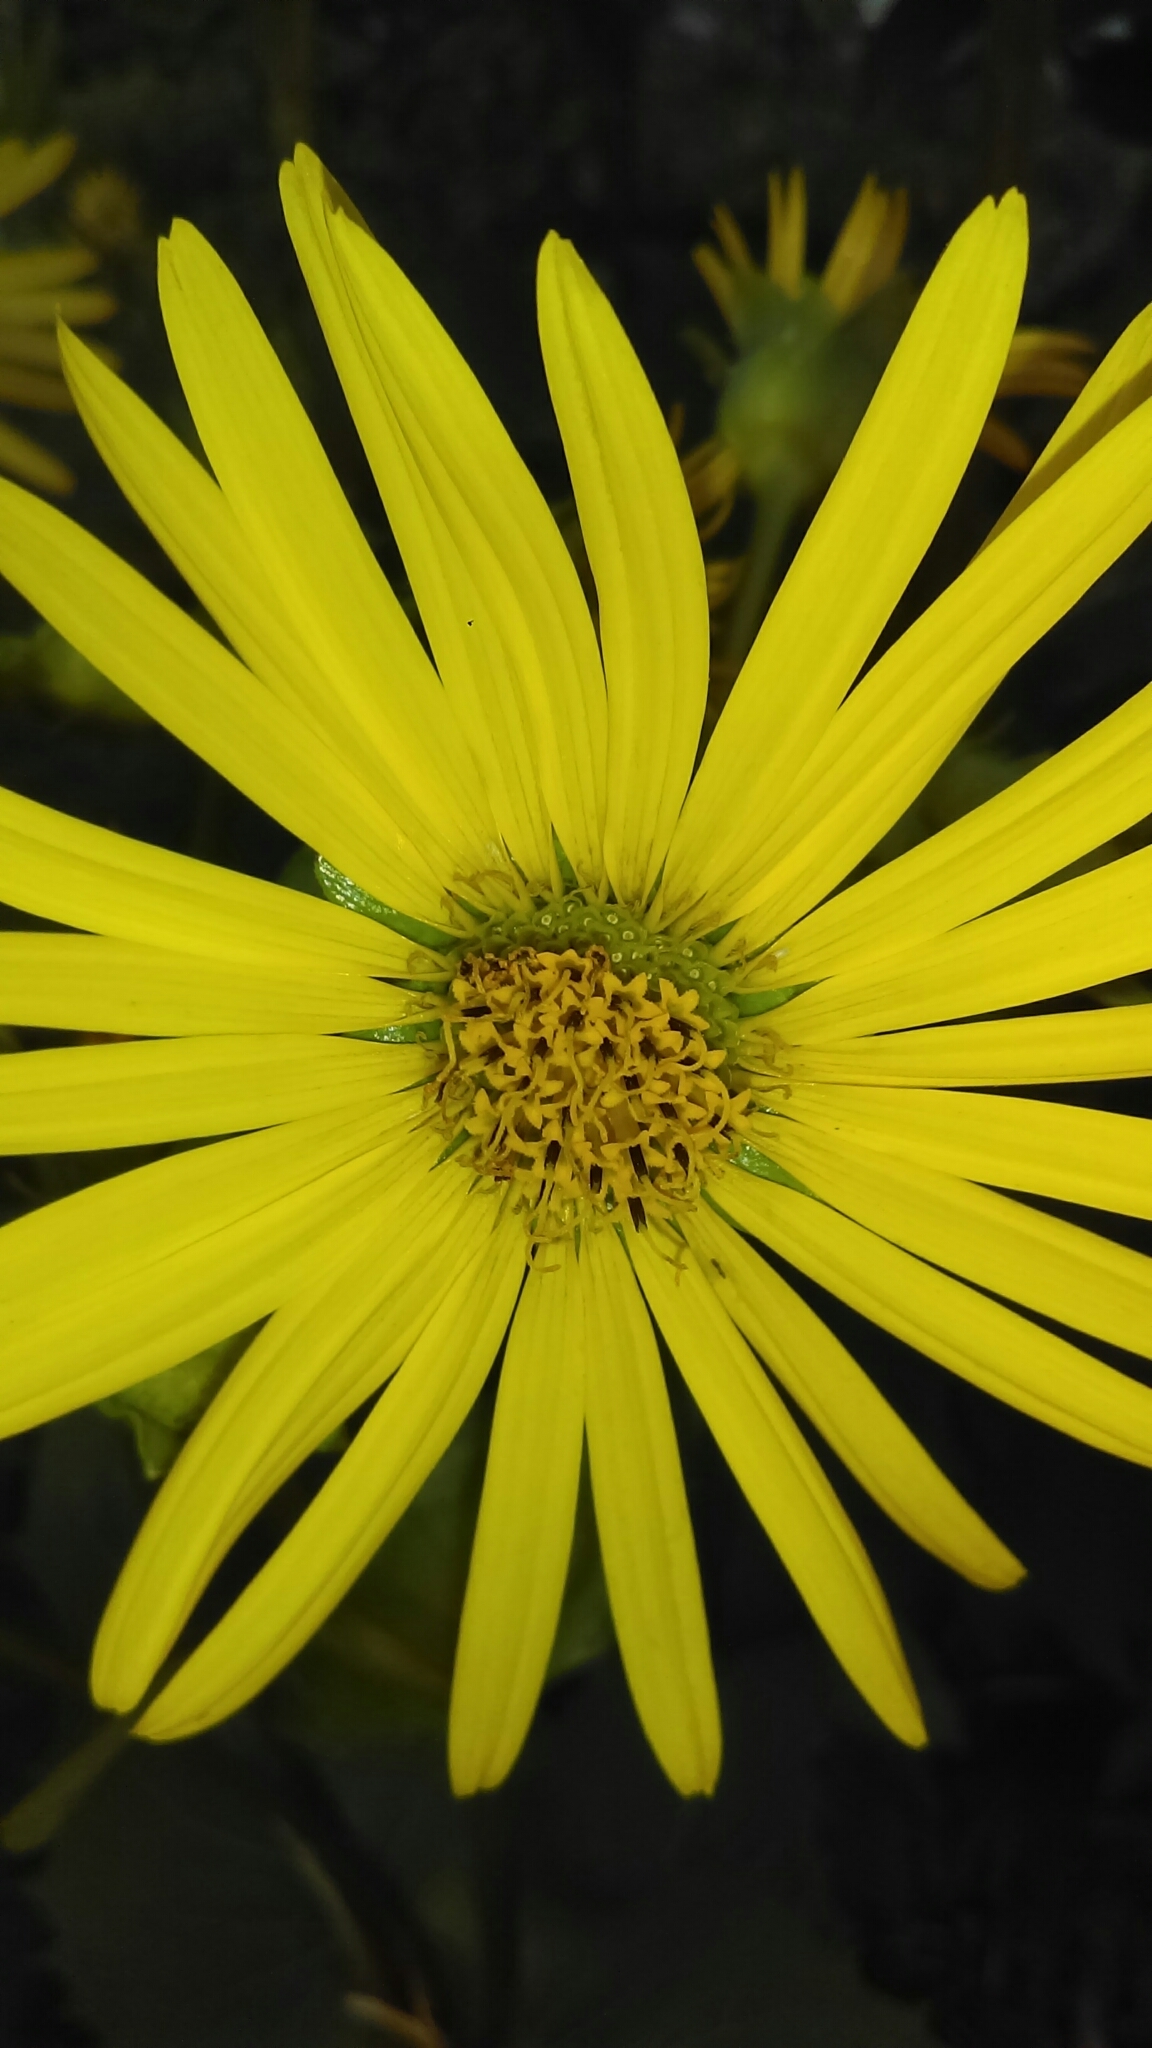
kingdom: Plantae
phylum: Tracheophyta
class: Magnoliopsida
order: Asterales
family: Asteraceae
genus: Silphium
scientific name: Silphium perfoliatum
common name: Cup-plant
